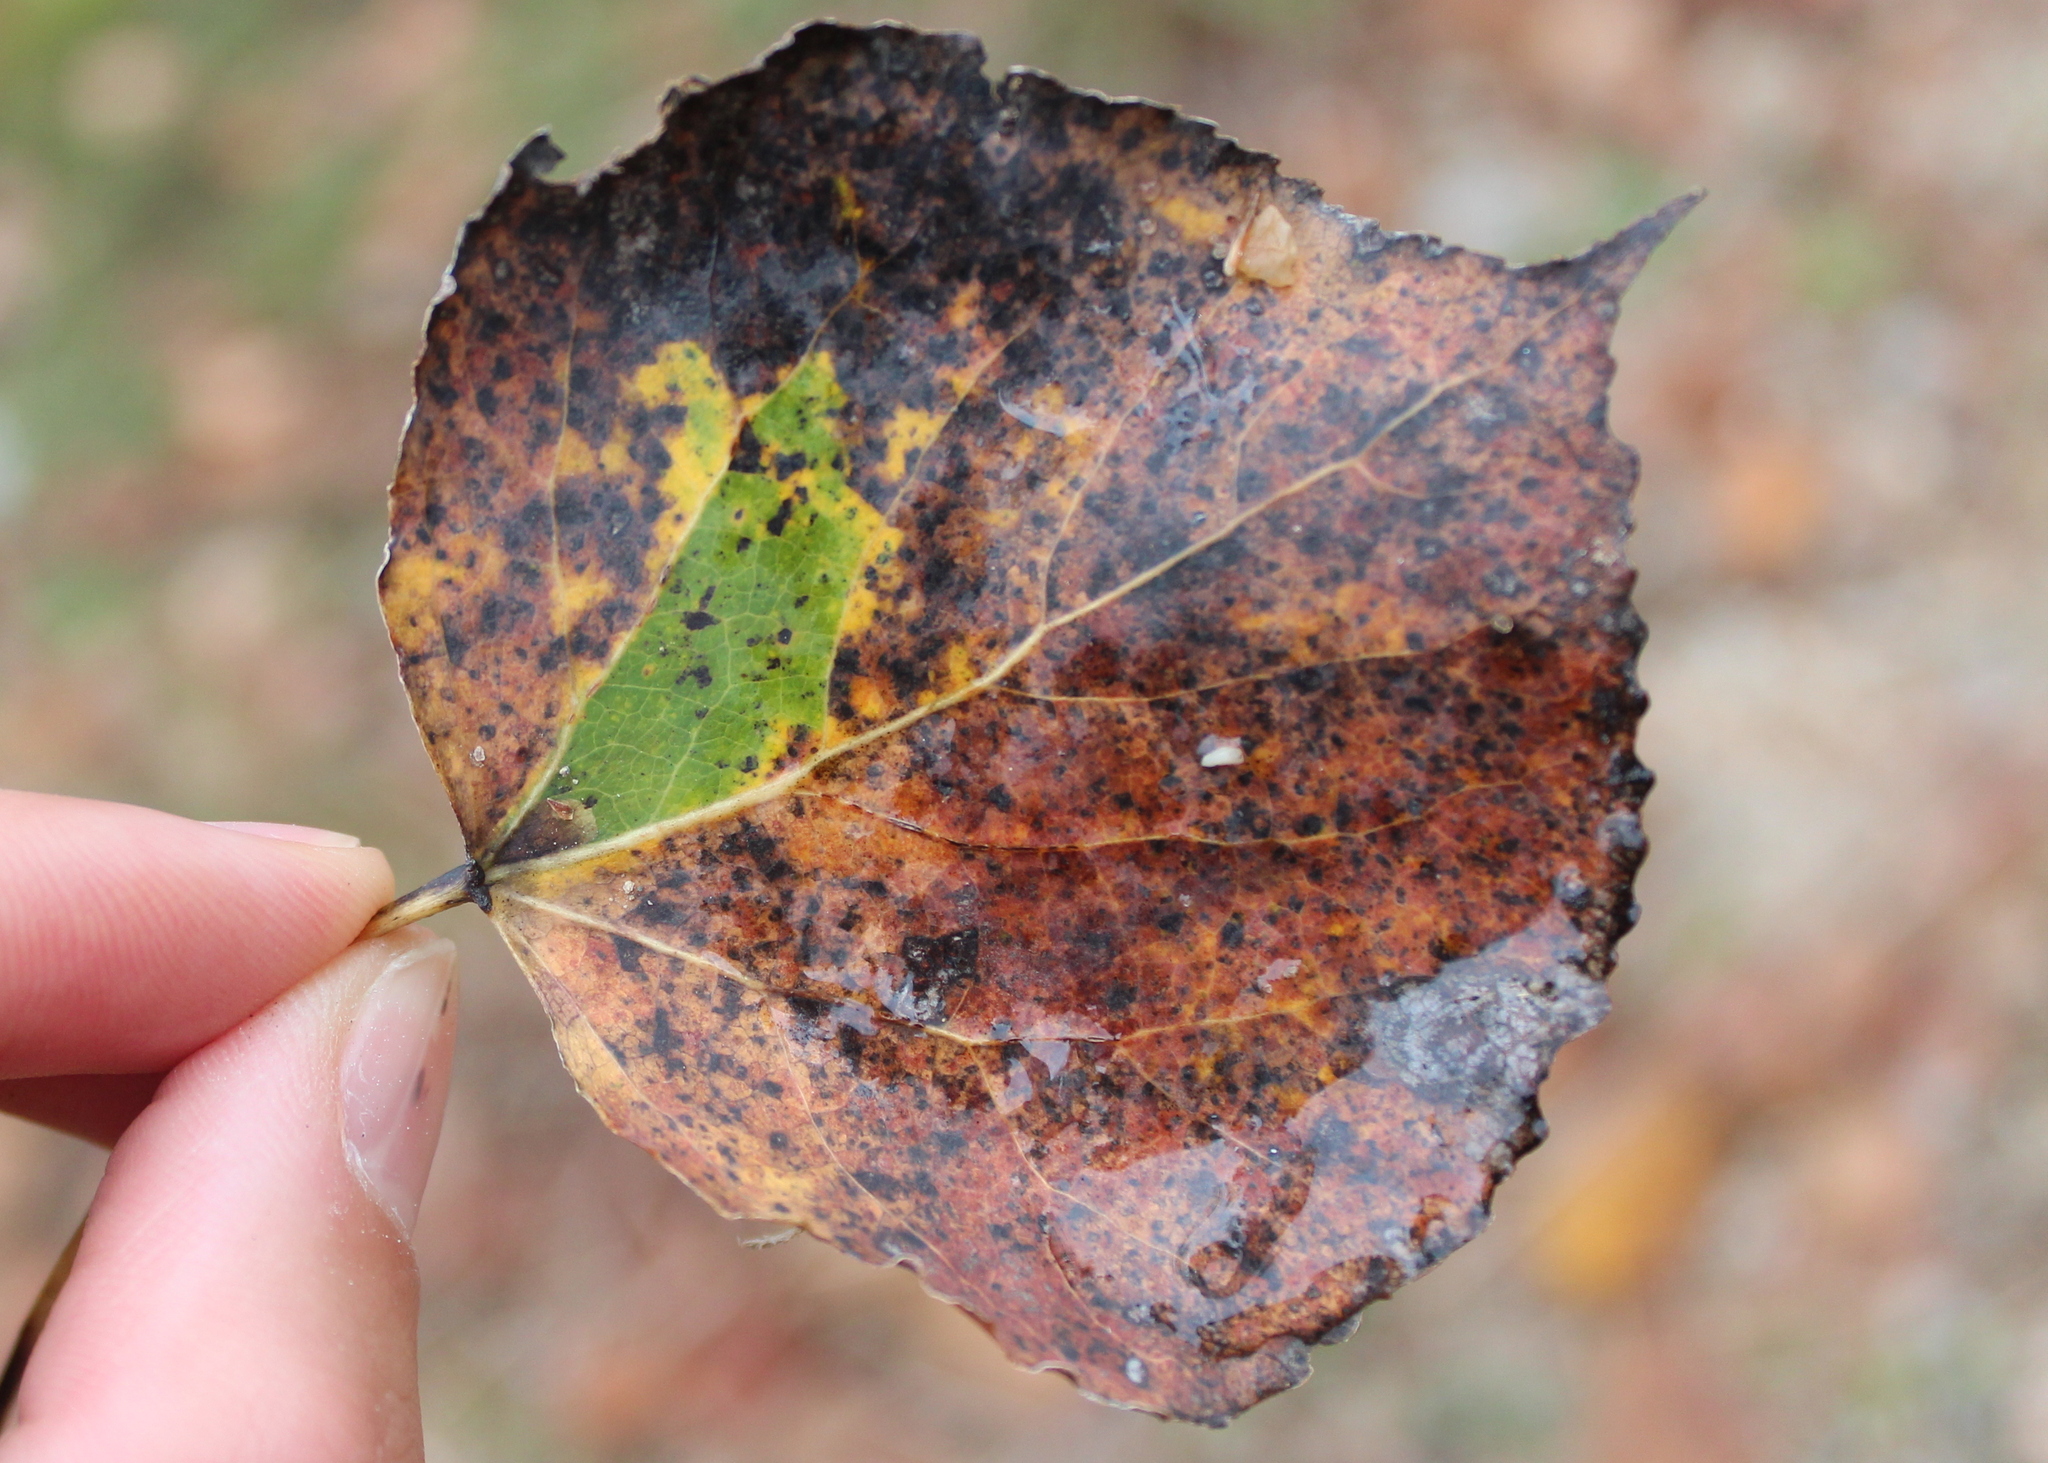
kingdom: Plantae
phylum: Tracheophyta
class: Magnoliopsida
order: Malpighiales
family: Salicaceae
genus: Populus
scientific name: Populus tremuloides
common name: Quaking aspen
